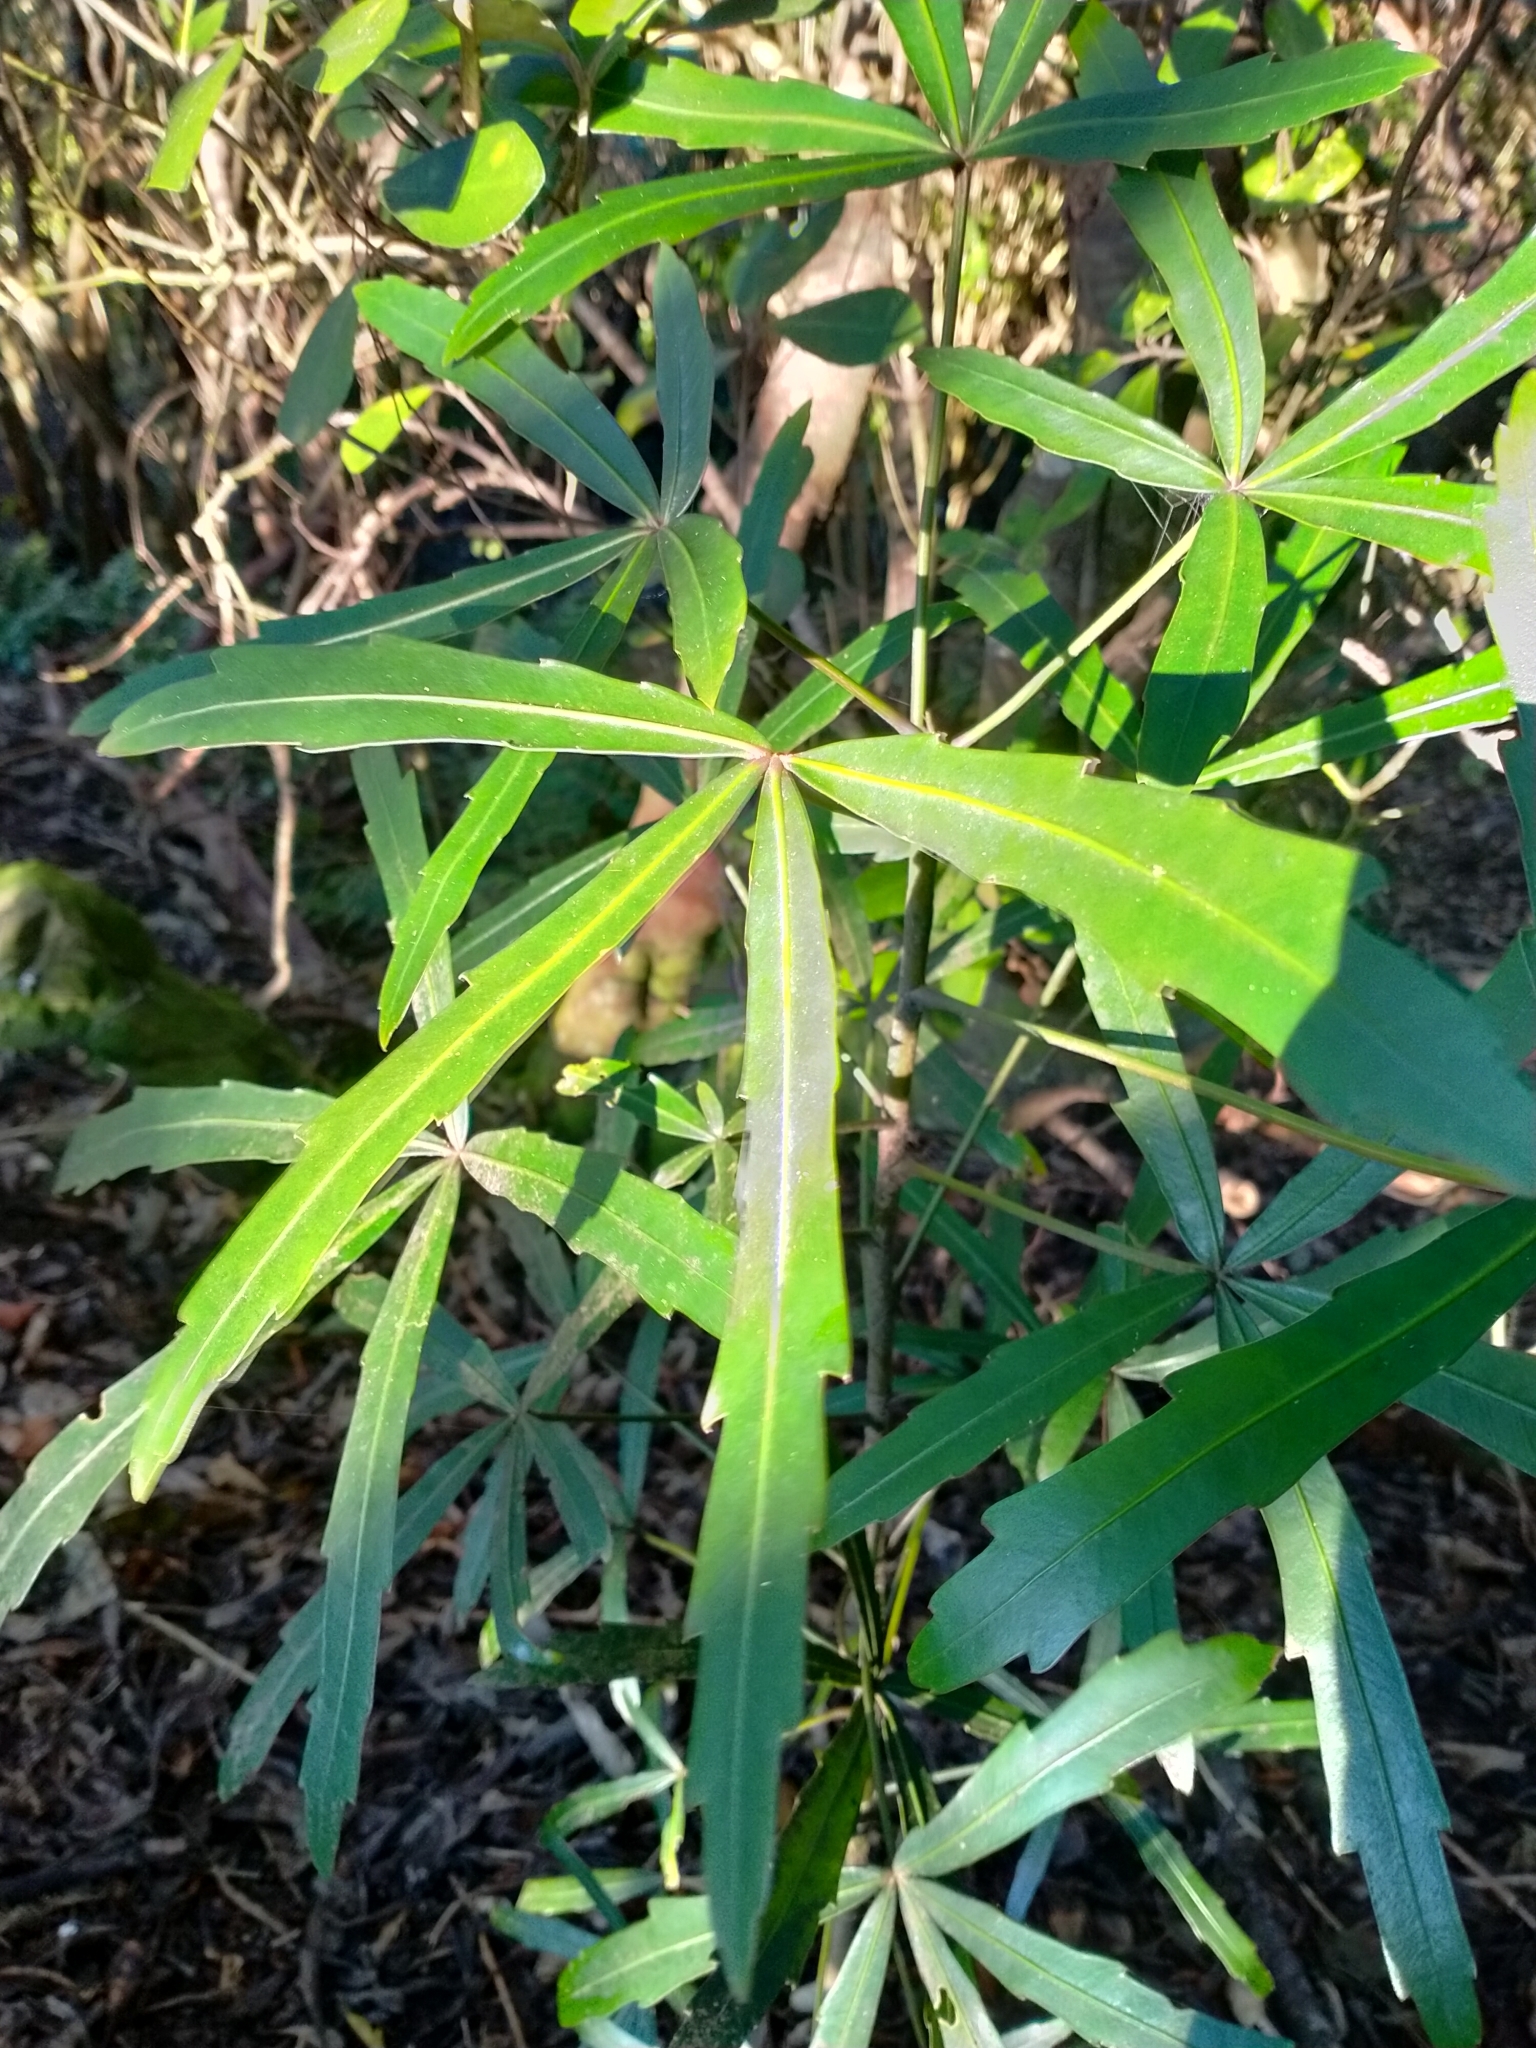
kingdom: Plantae
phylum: Tracheophyta
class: Magnoliopsida
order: Apiales
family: Araliaceae
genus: Pseudopanax
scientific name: Pseudopanax
